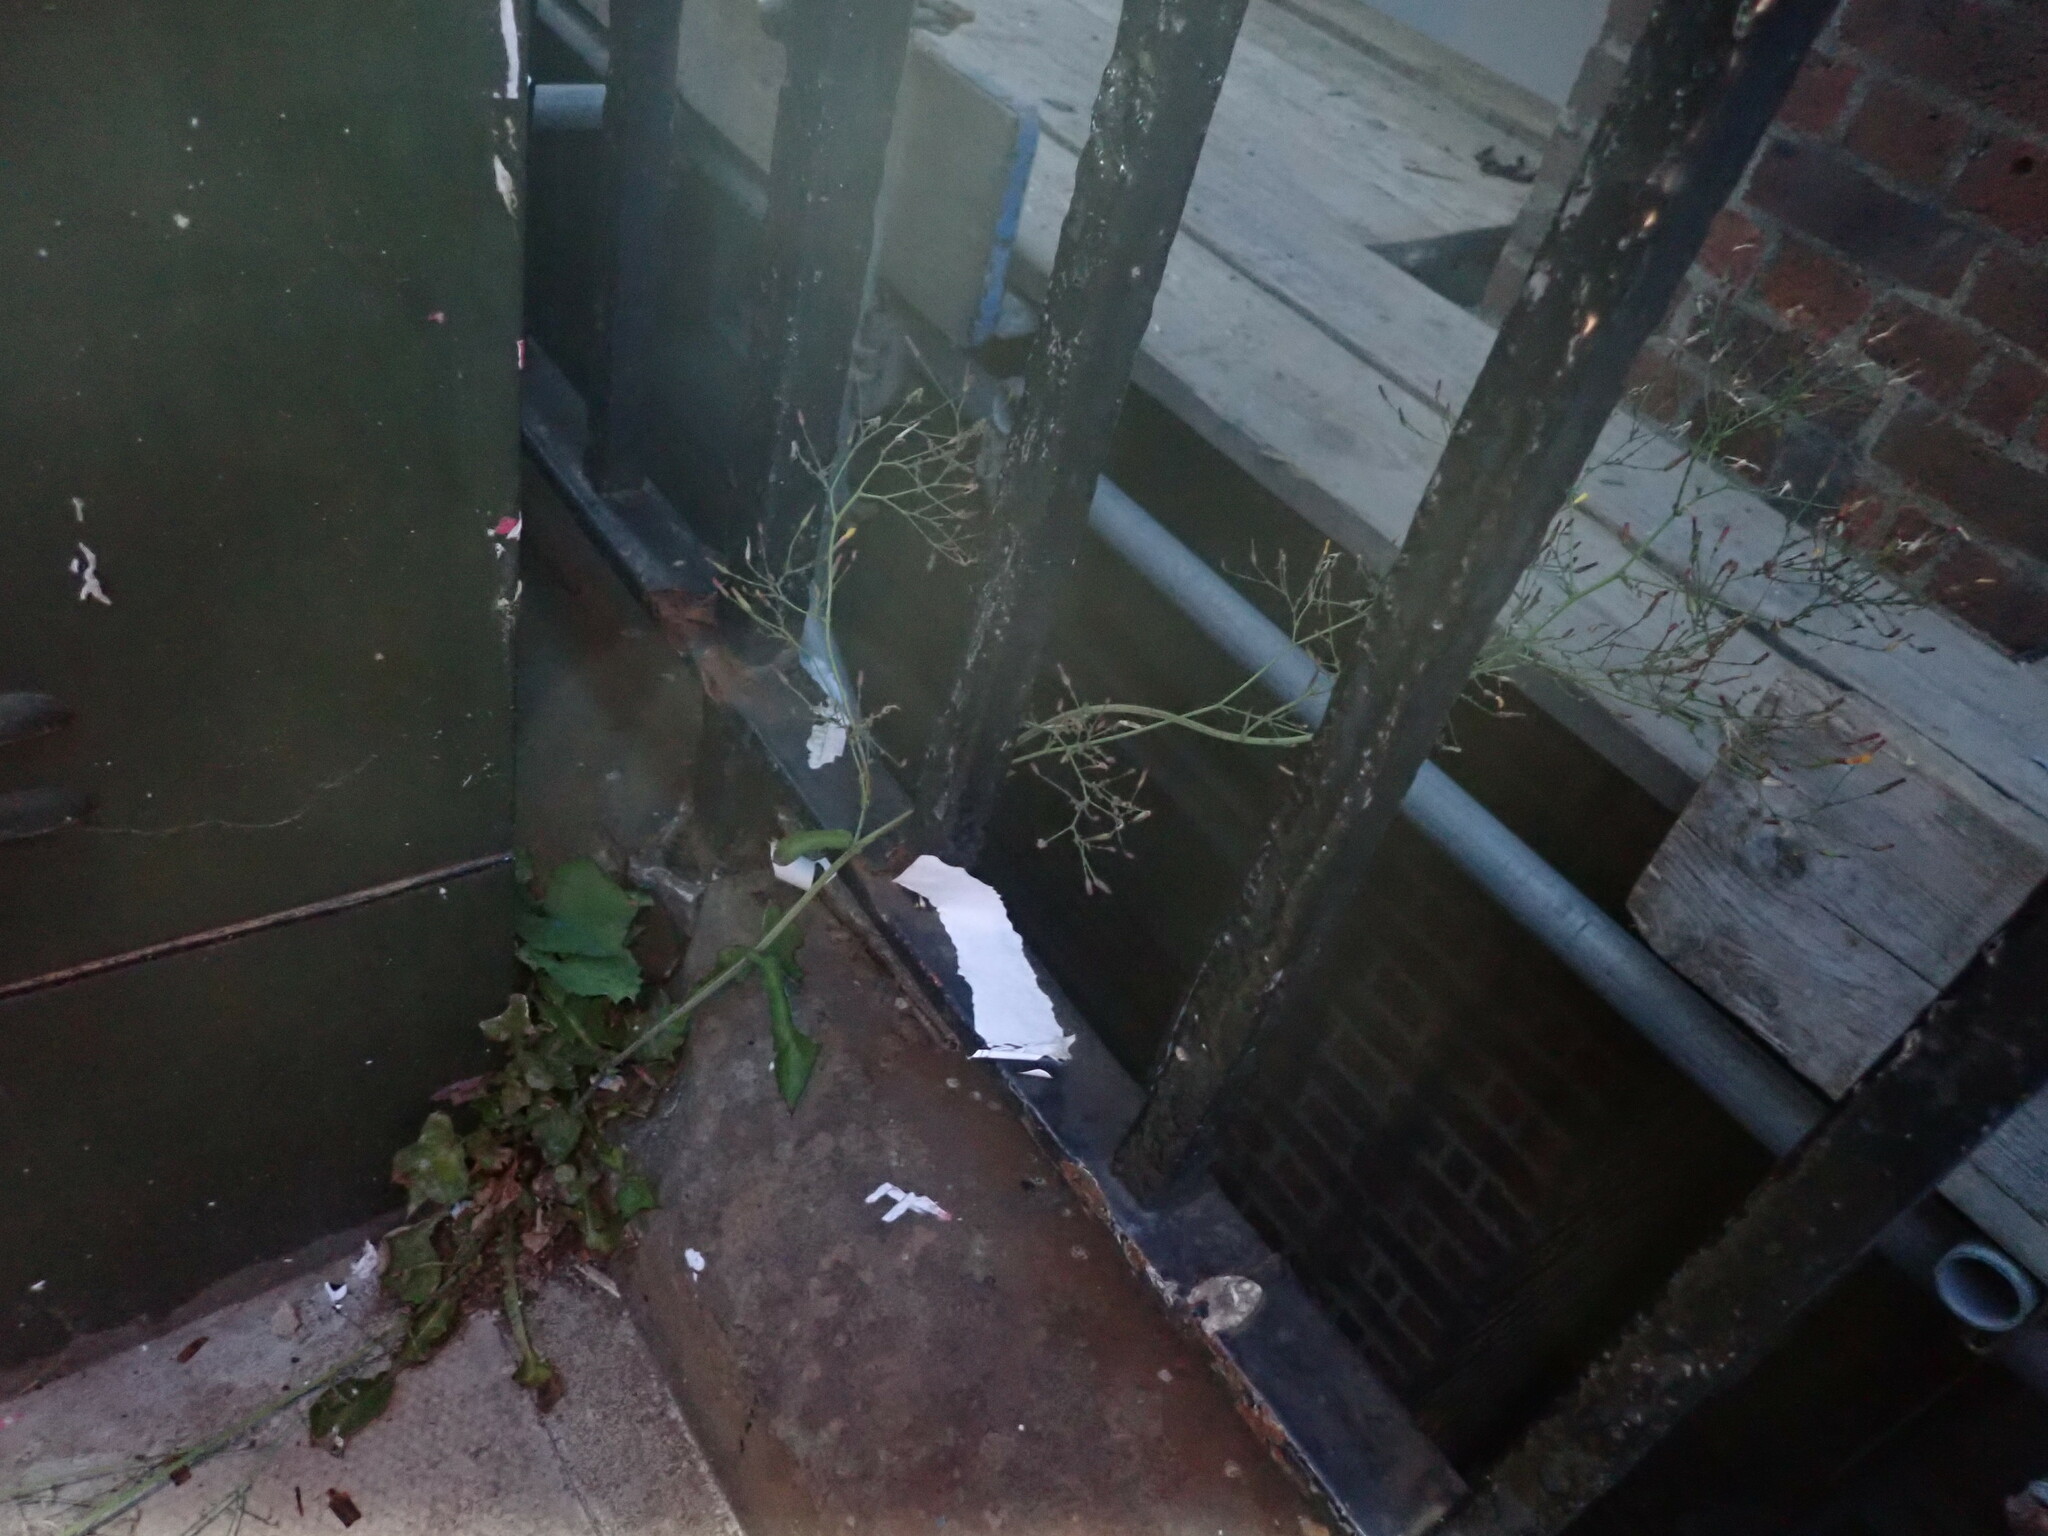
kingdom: Plantae
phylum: Tracheophyta
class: Magnoliopsida
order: Asterales
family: Asteraceae
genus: Mycelis
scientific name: Mycelis muralis
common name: Wall lettuce
